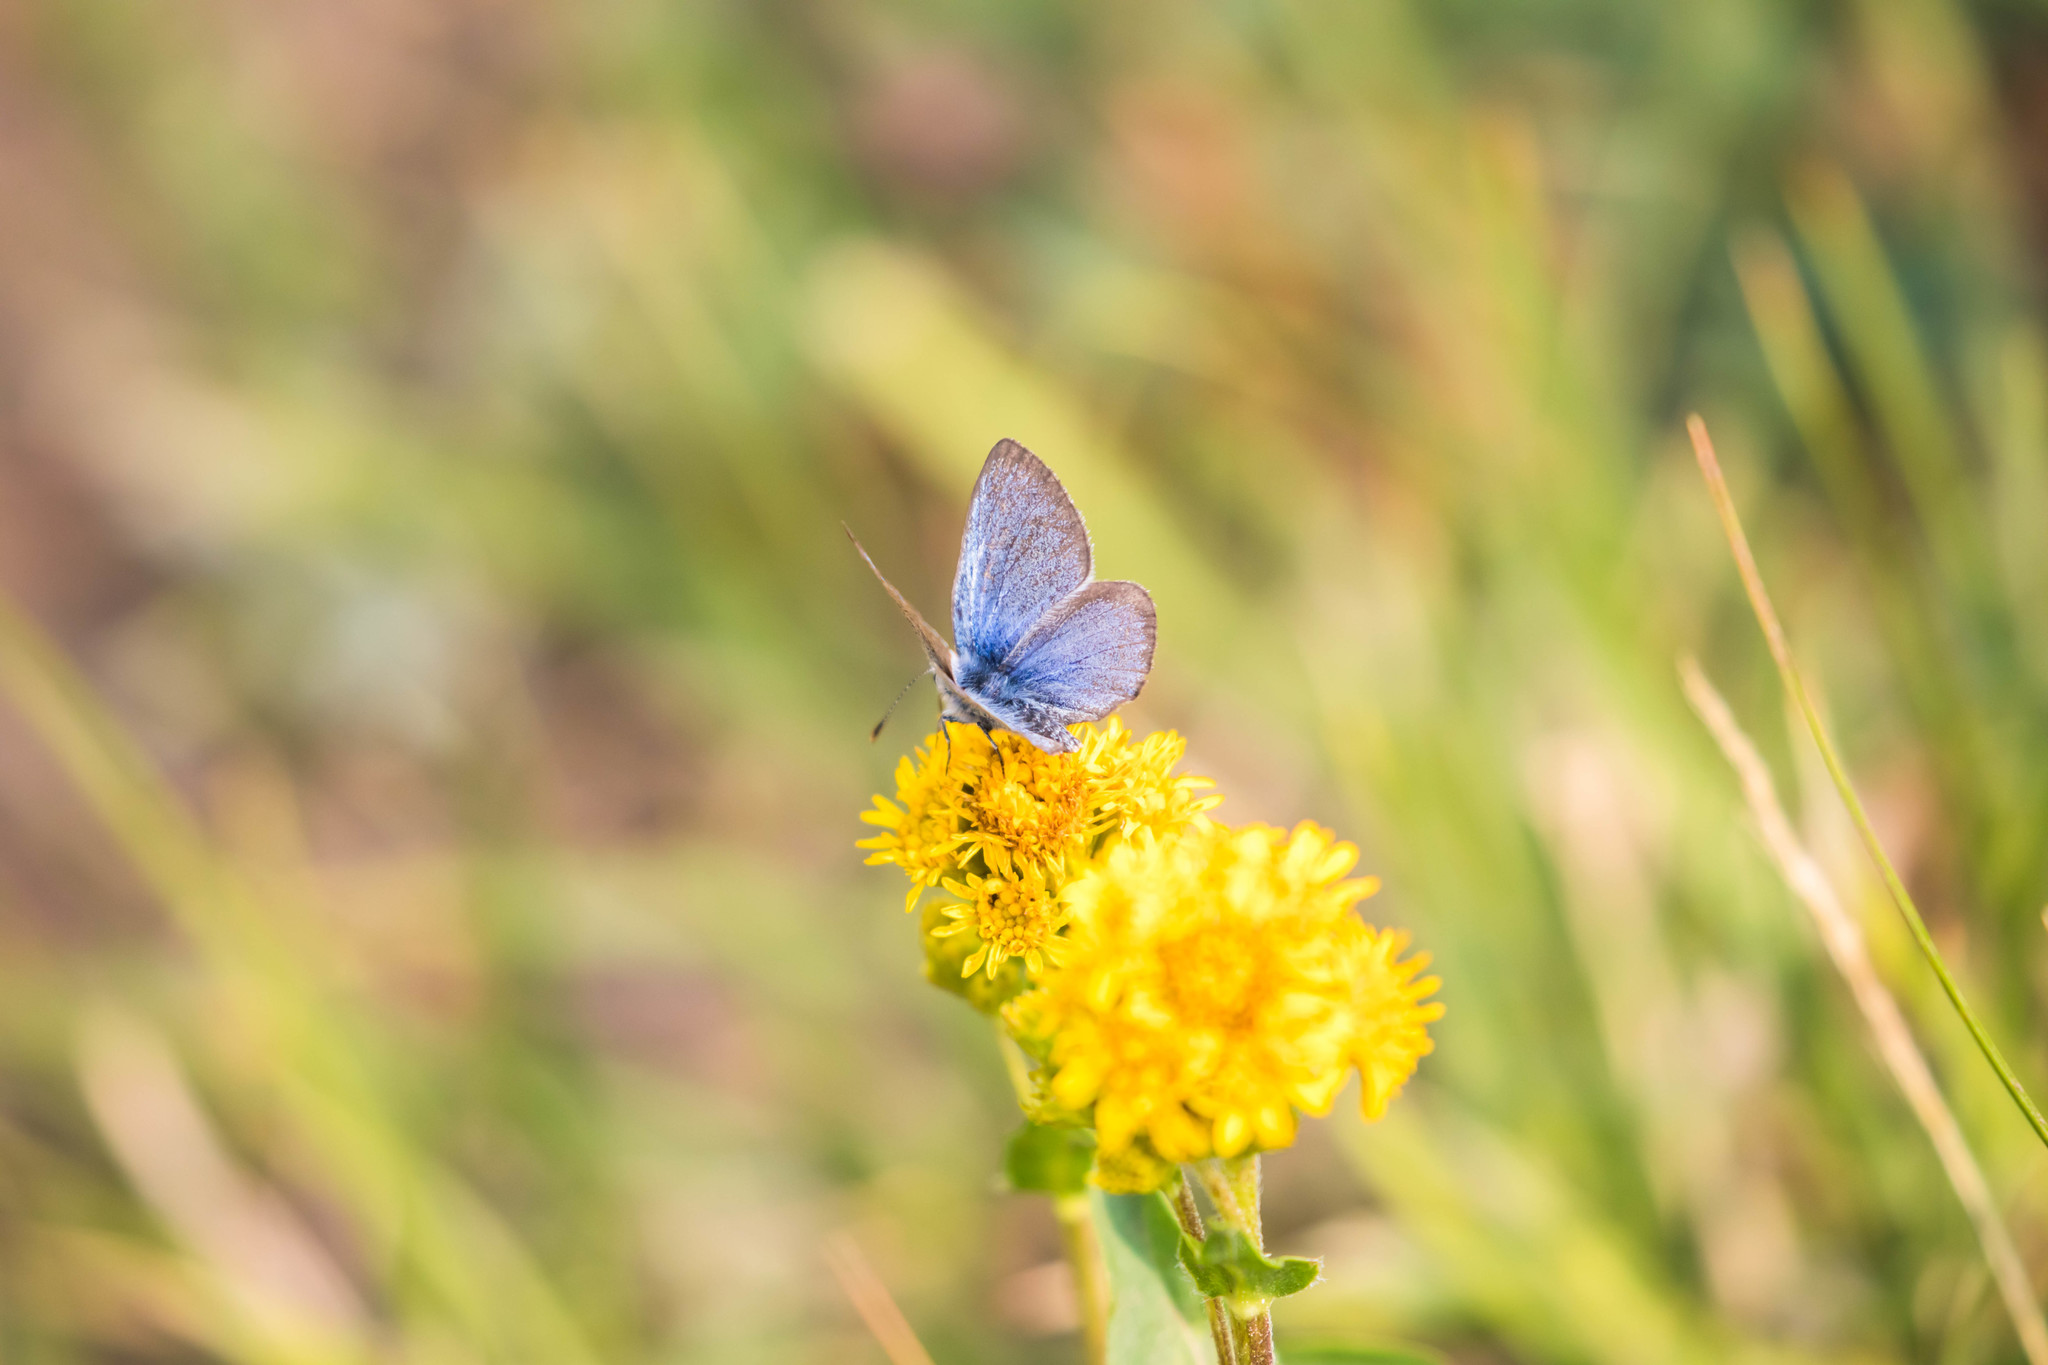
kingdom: Animalia
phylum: Arthropoda
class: Insecta
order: Lepidoptera
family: Lycaenidae
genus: Glaucopsyche
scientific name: Glaucopsyche lygdamus
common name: Silvery blue
